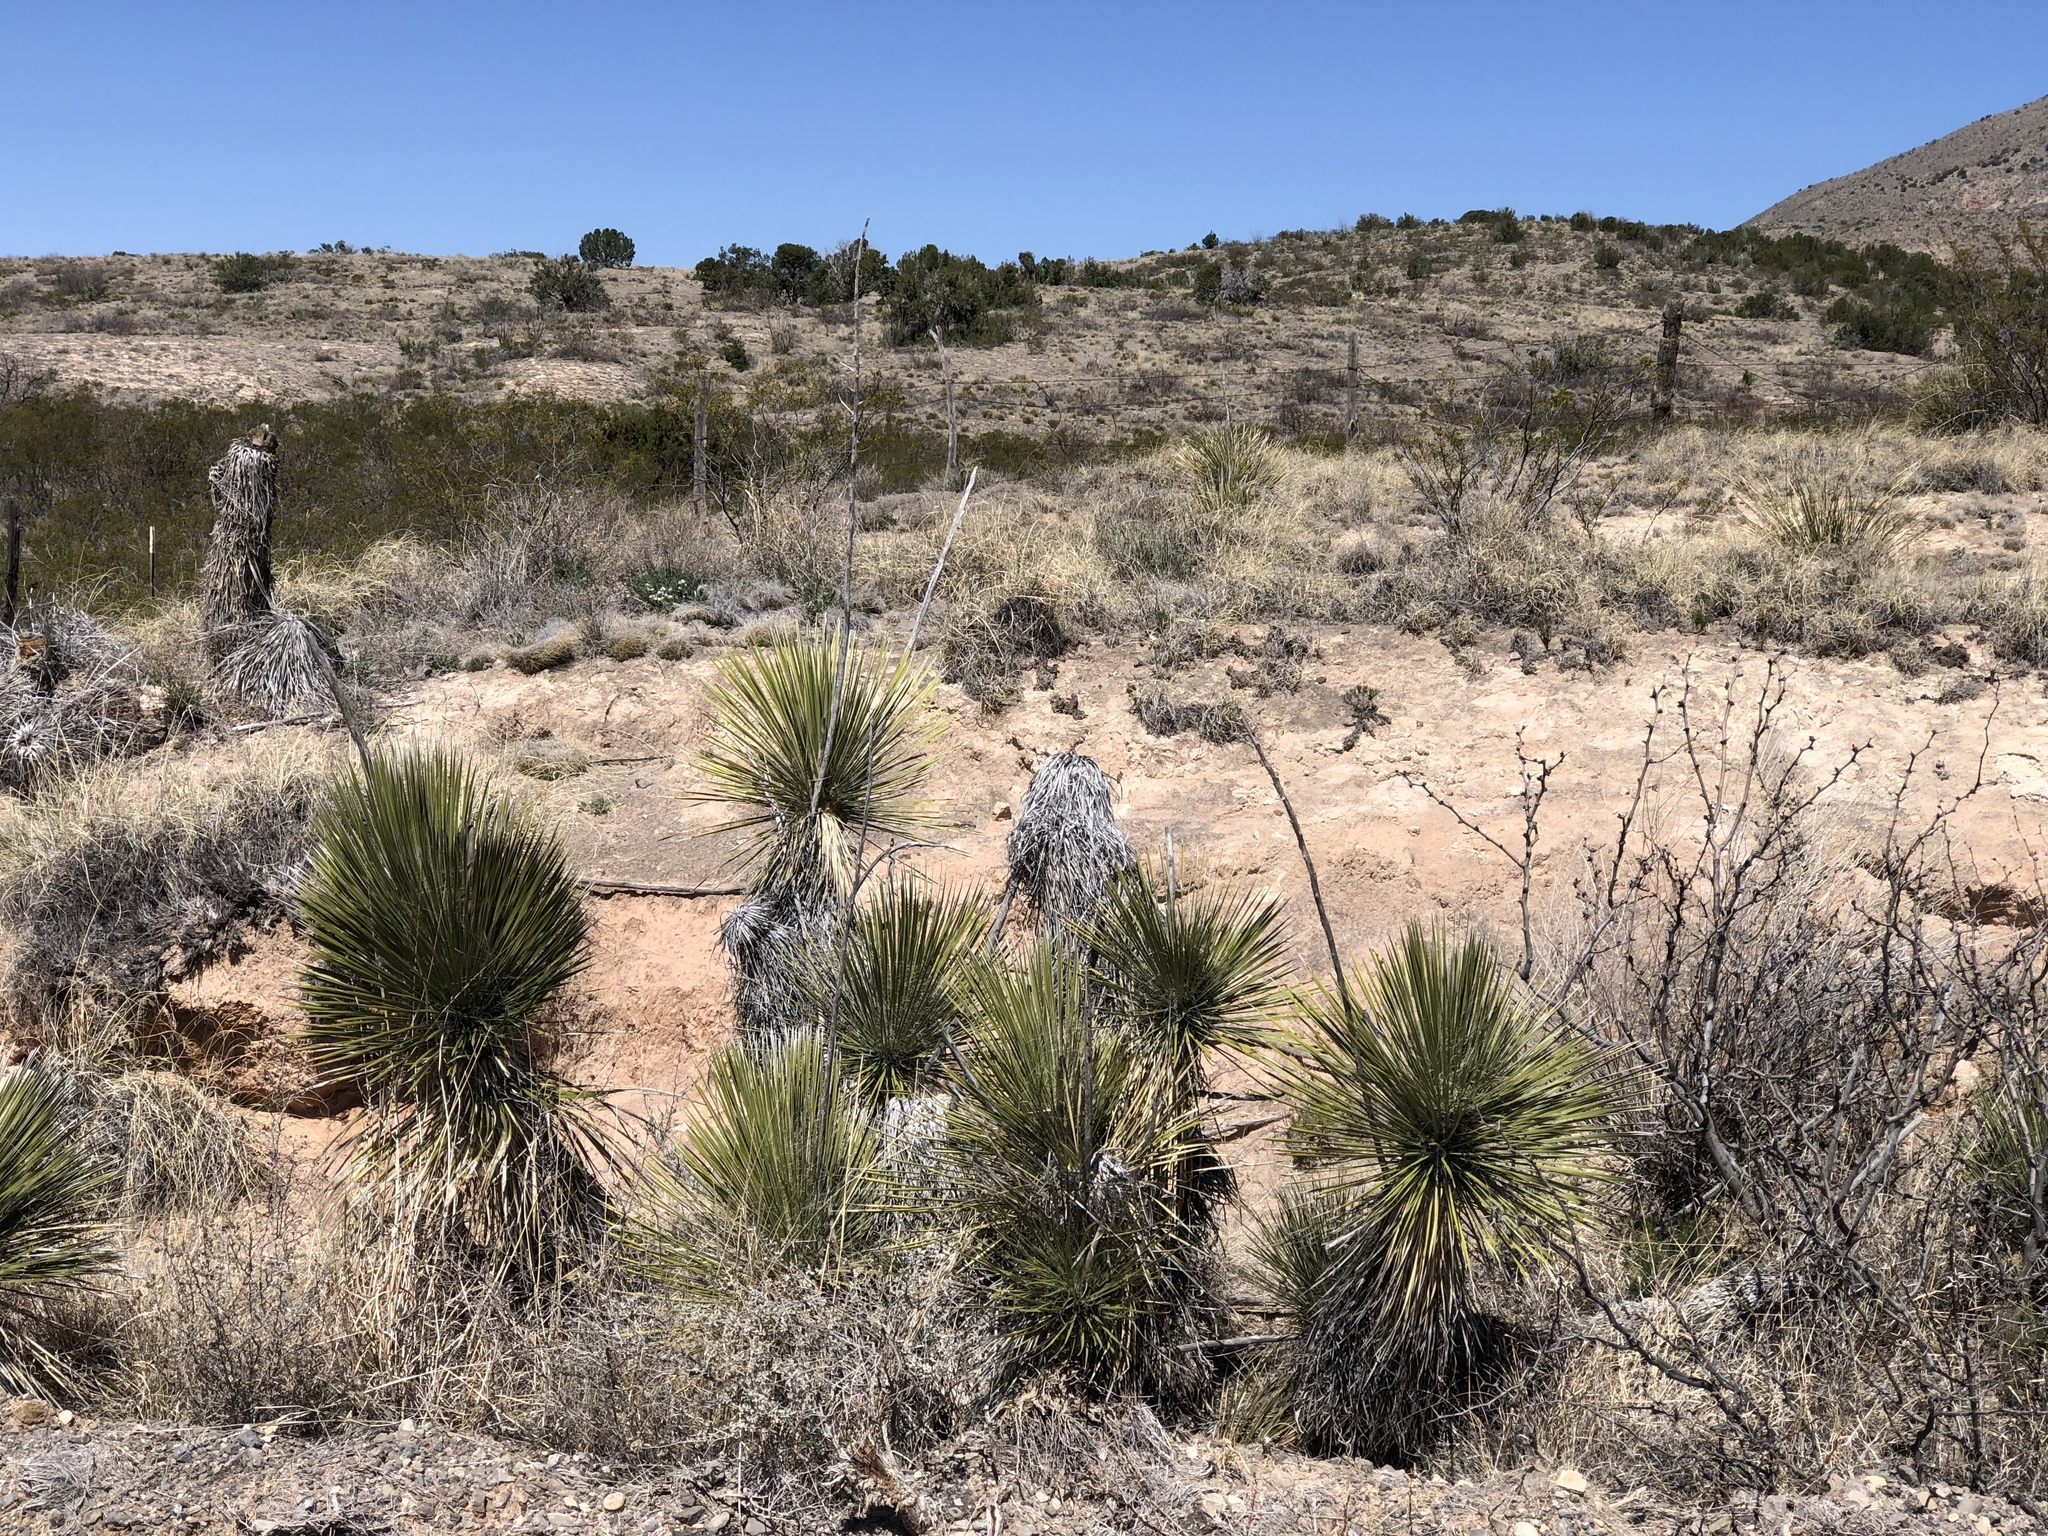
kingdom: Plantae
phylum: Tracheophyta
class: Liliopsida
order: Asparagales
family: Asparagaceae
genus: Yucca
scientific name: Yucca elata
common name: Palmella
